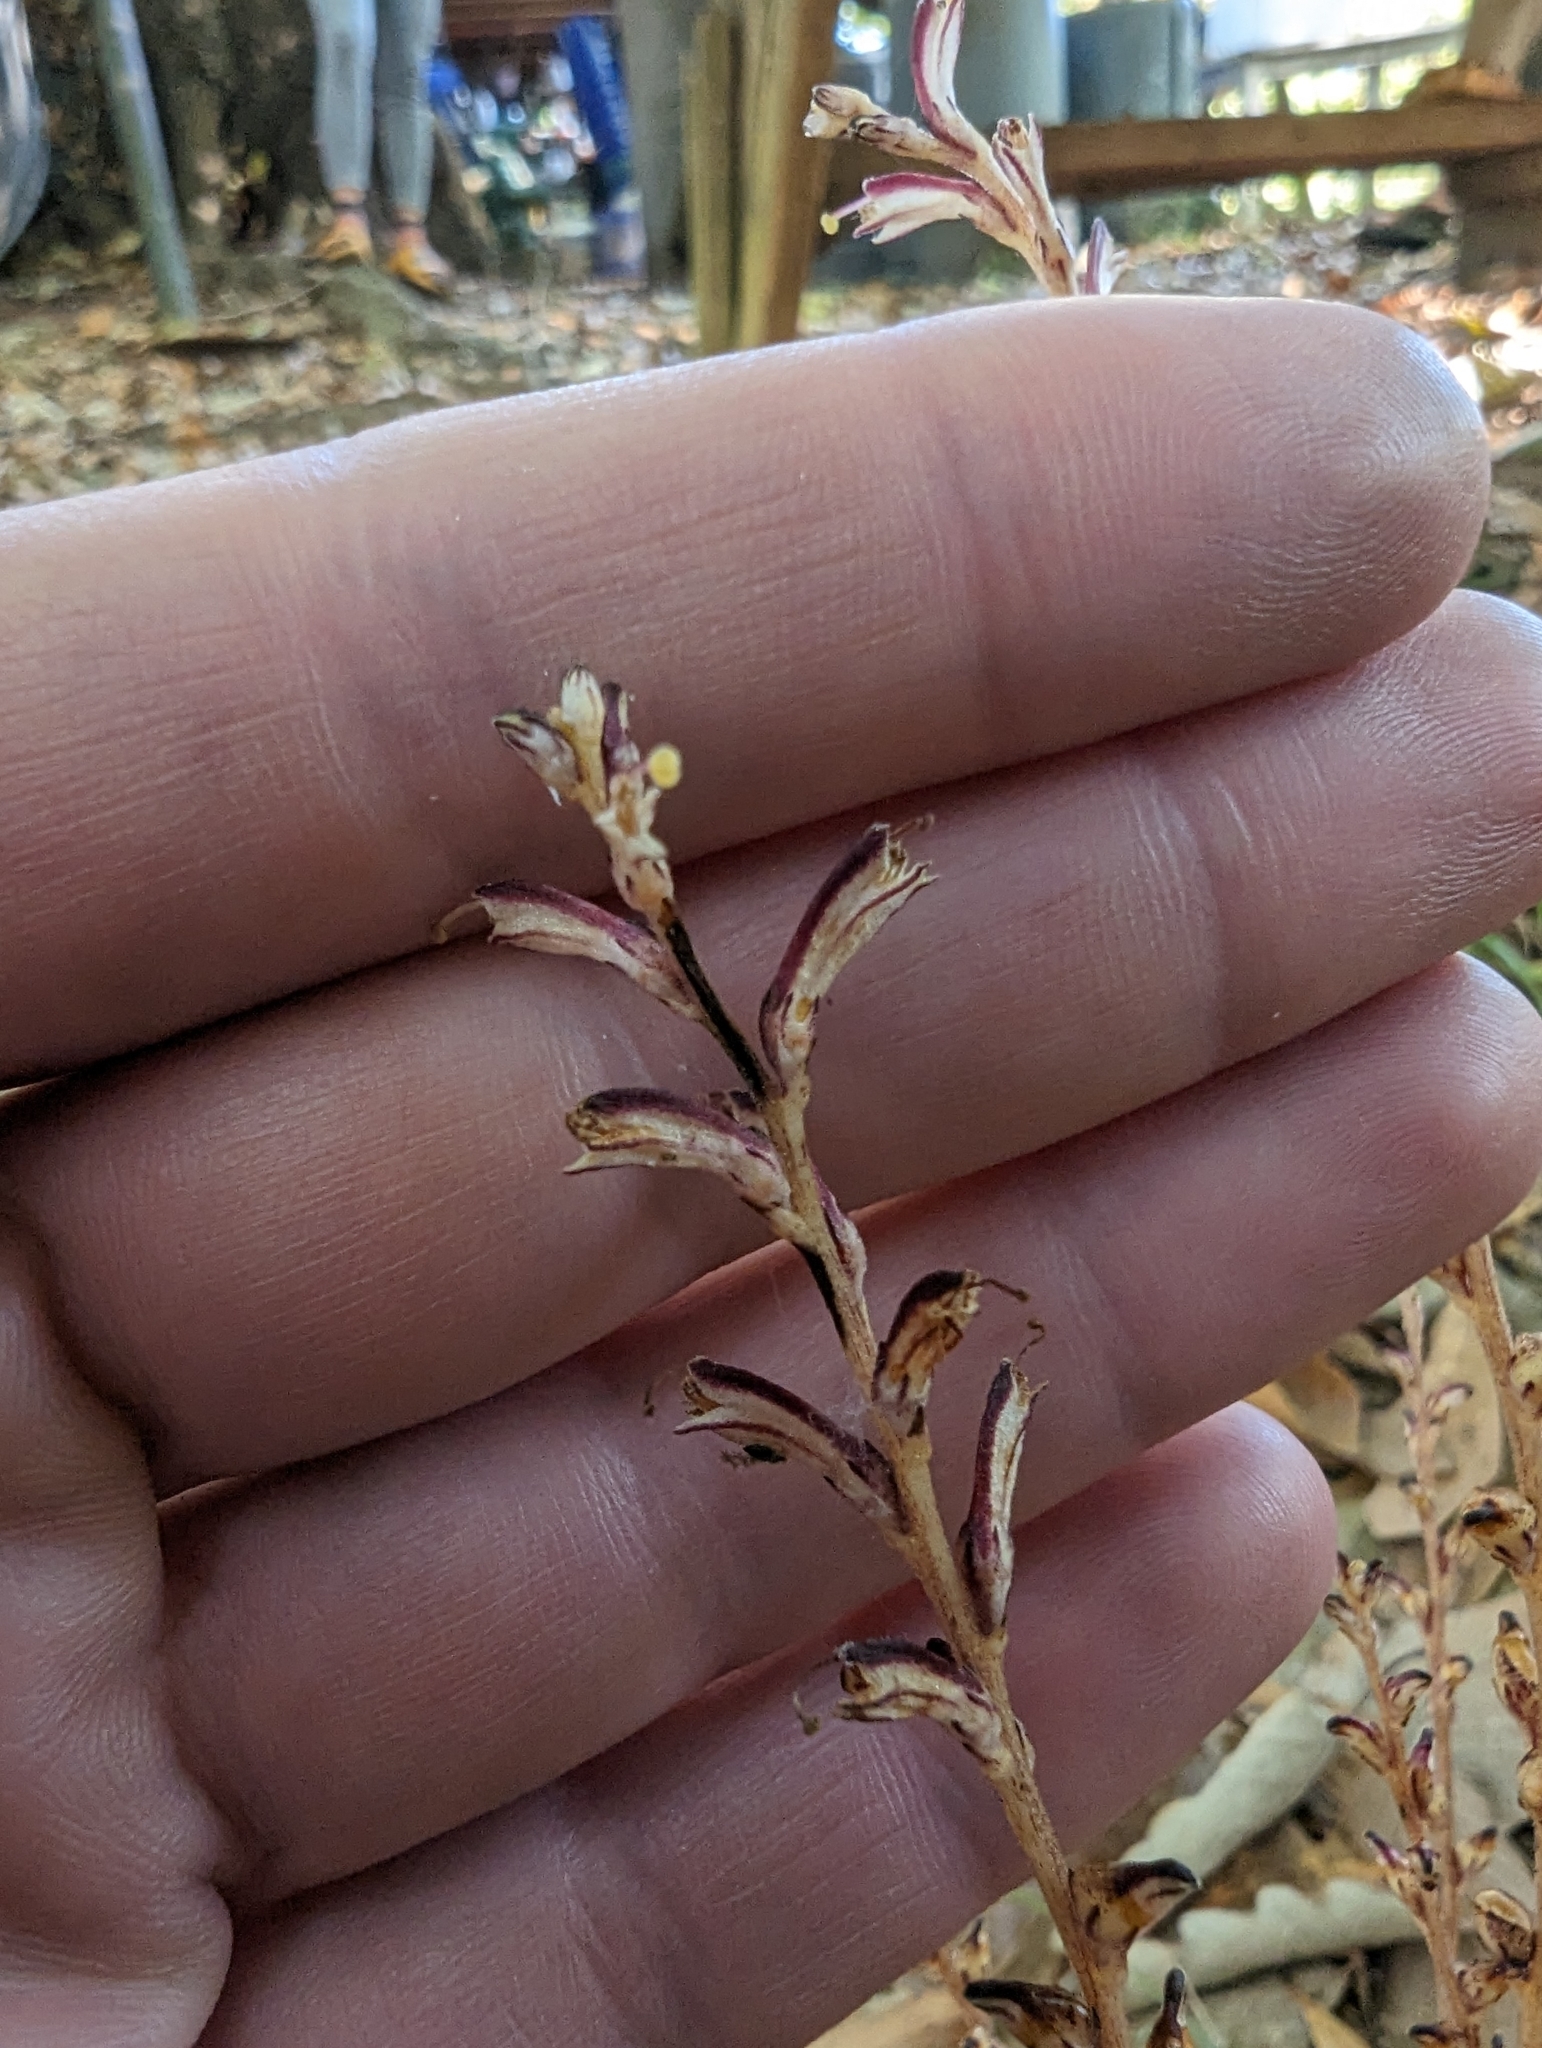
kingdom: Plantae
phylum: Tracheophyta
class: Magnoliopsida
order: Lamiales
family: Orobanchaceae
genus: Epifagus
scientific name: Epifagus virginiana
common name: Beechdrops
